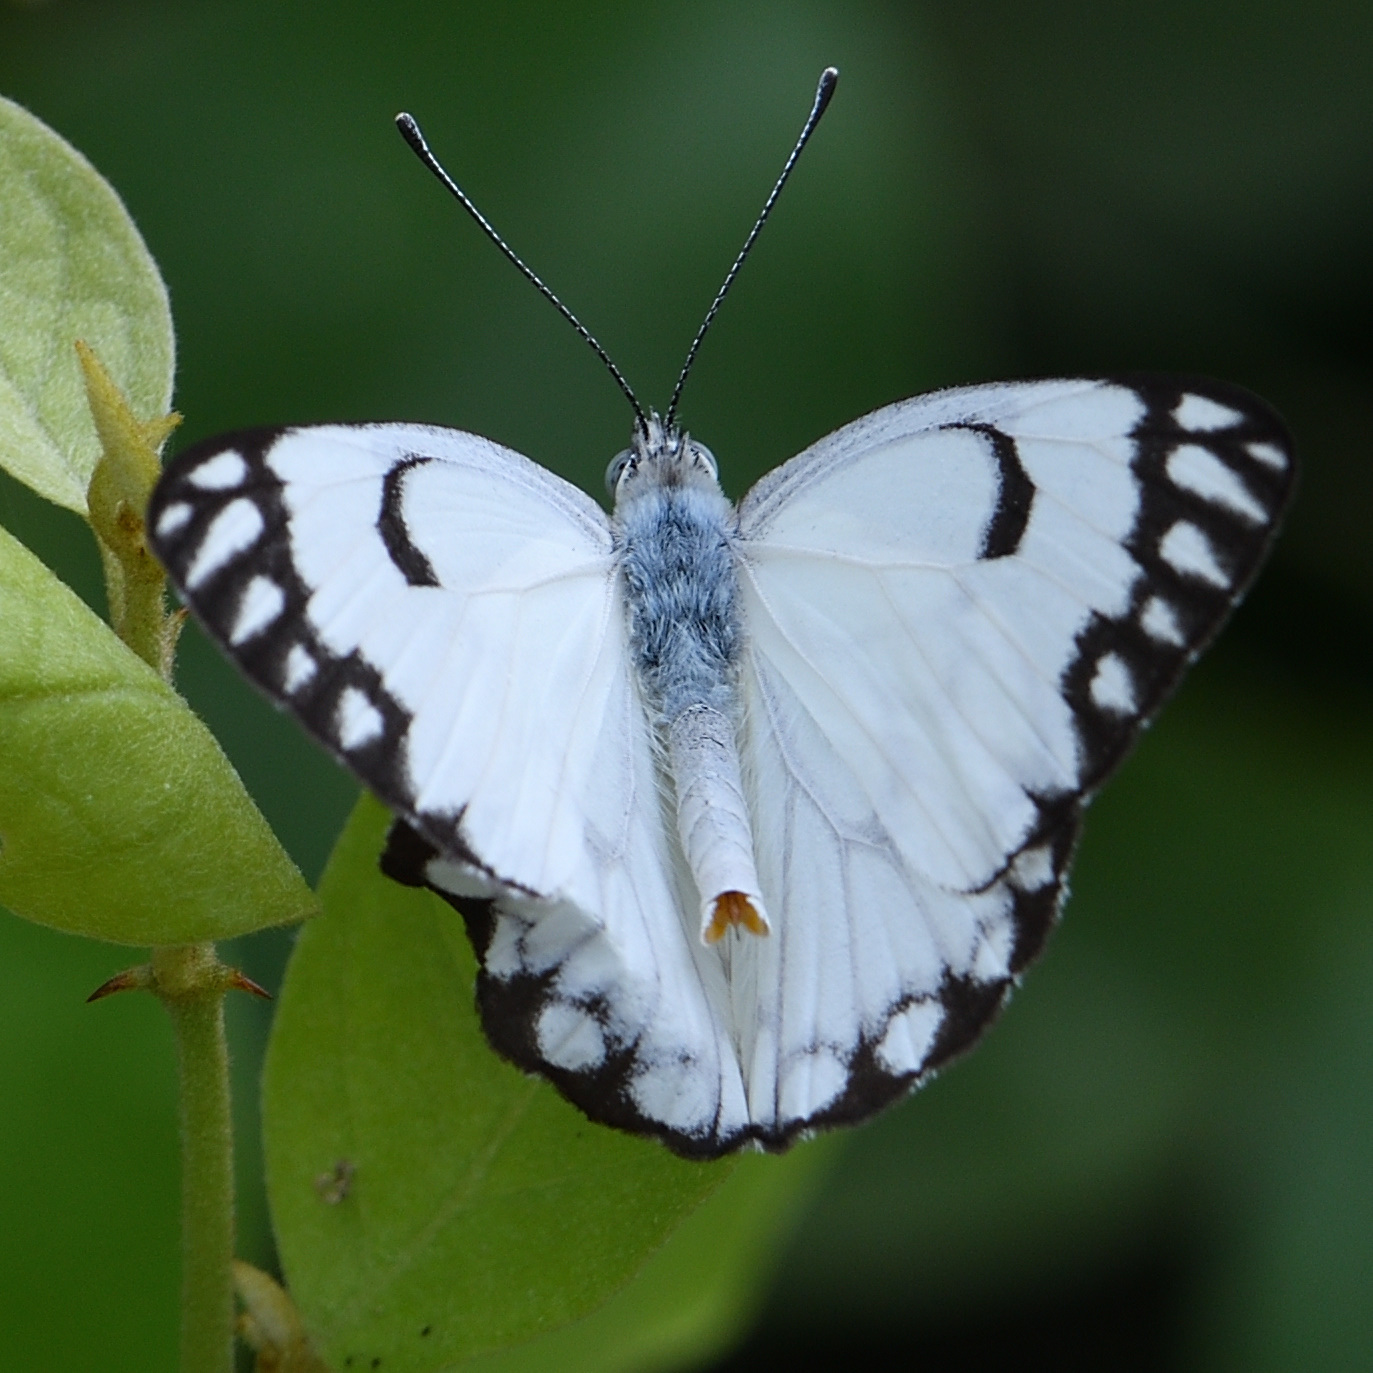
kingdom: Animalia
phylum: Arthropoda
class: Insecta
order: Lepidoptera
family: Pieridae
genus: Belenois
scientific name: Belenois aurota
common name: Brown-veined white
